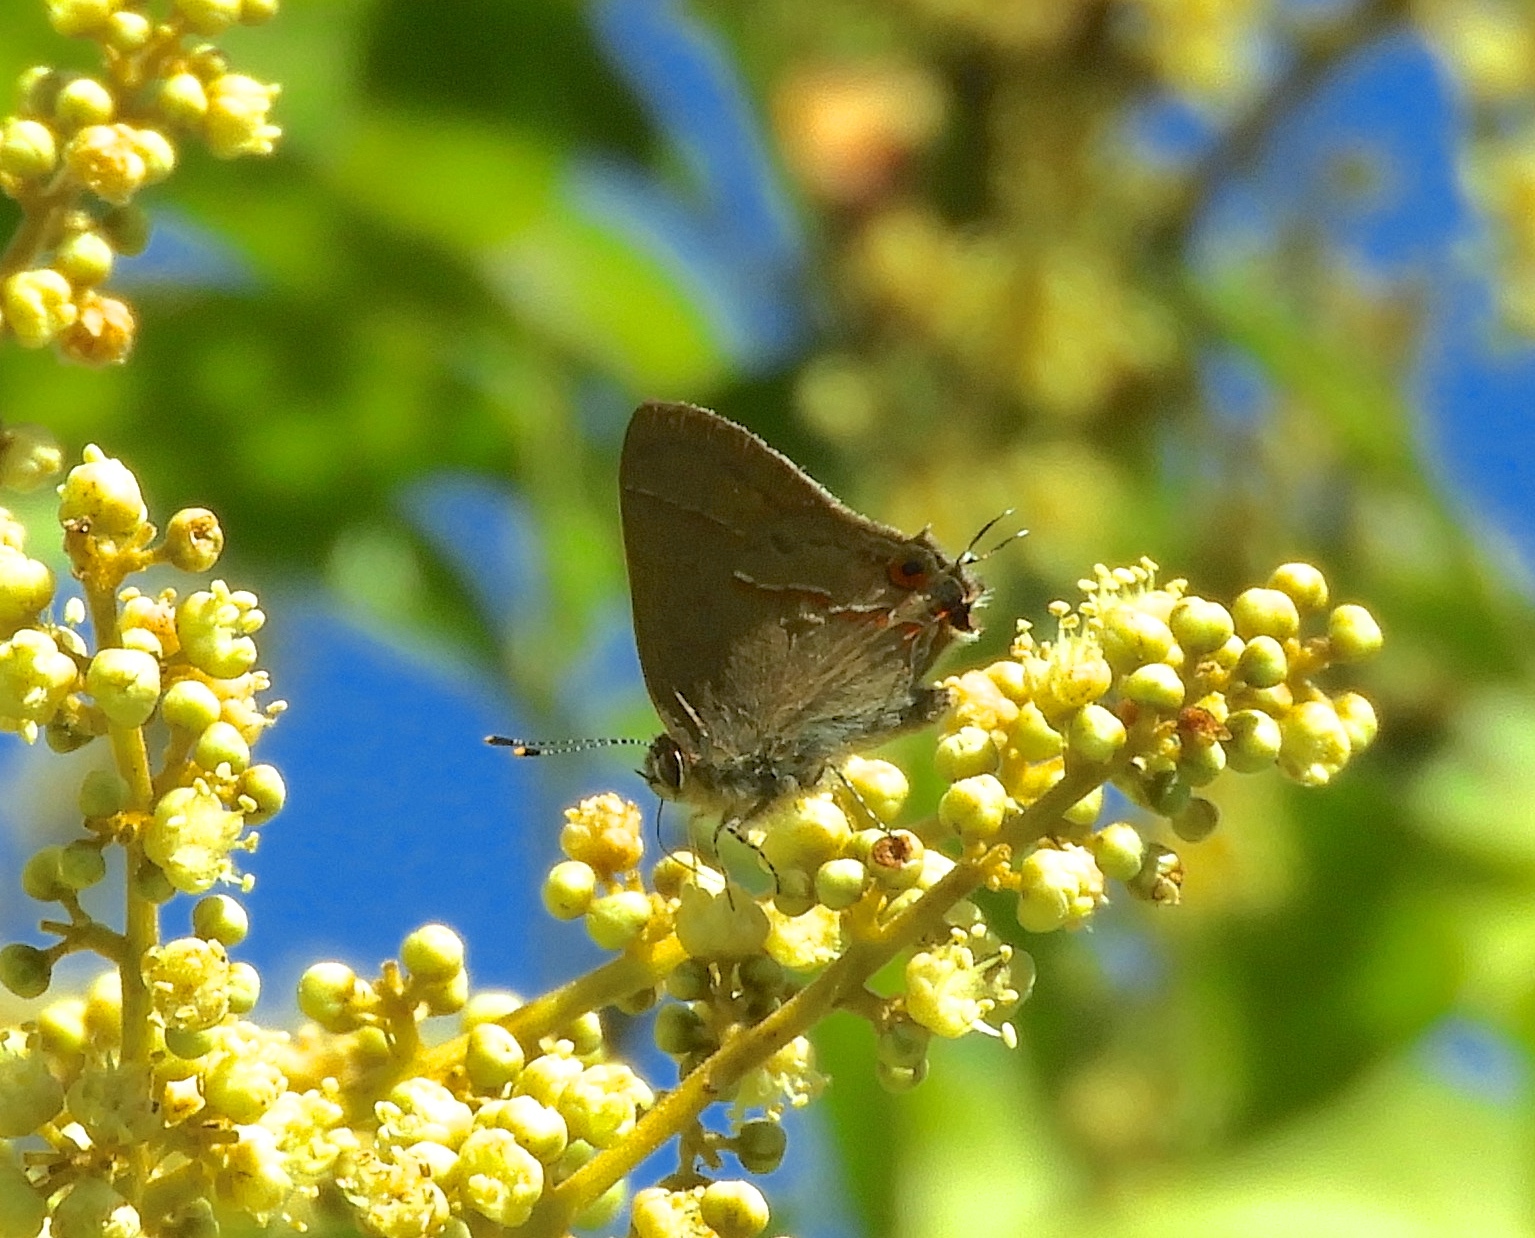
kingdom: Animalia
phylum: Arthropoda
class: Insecta
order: Lepidoptera
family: Lycaenidae
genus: Electrostrymon
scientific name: Electrostrymon endymion
